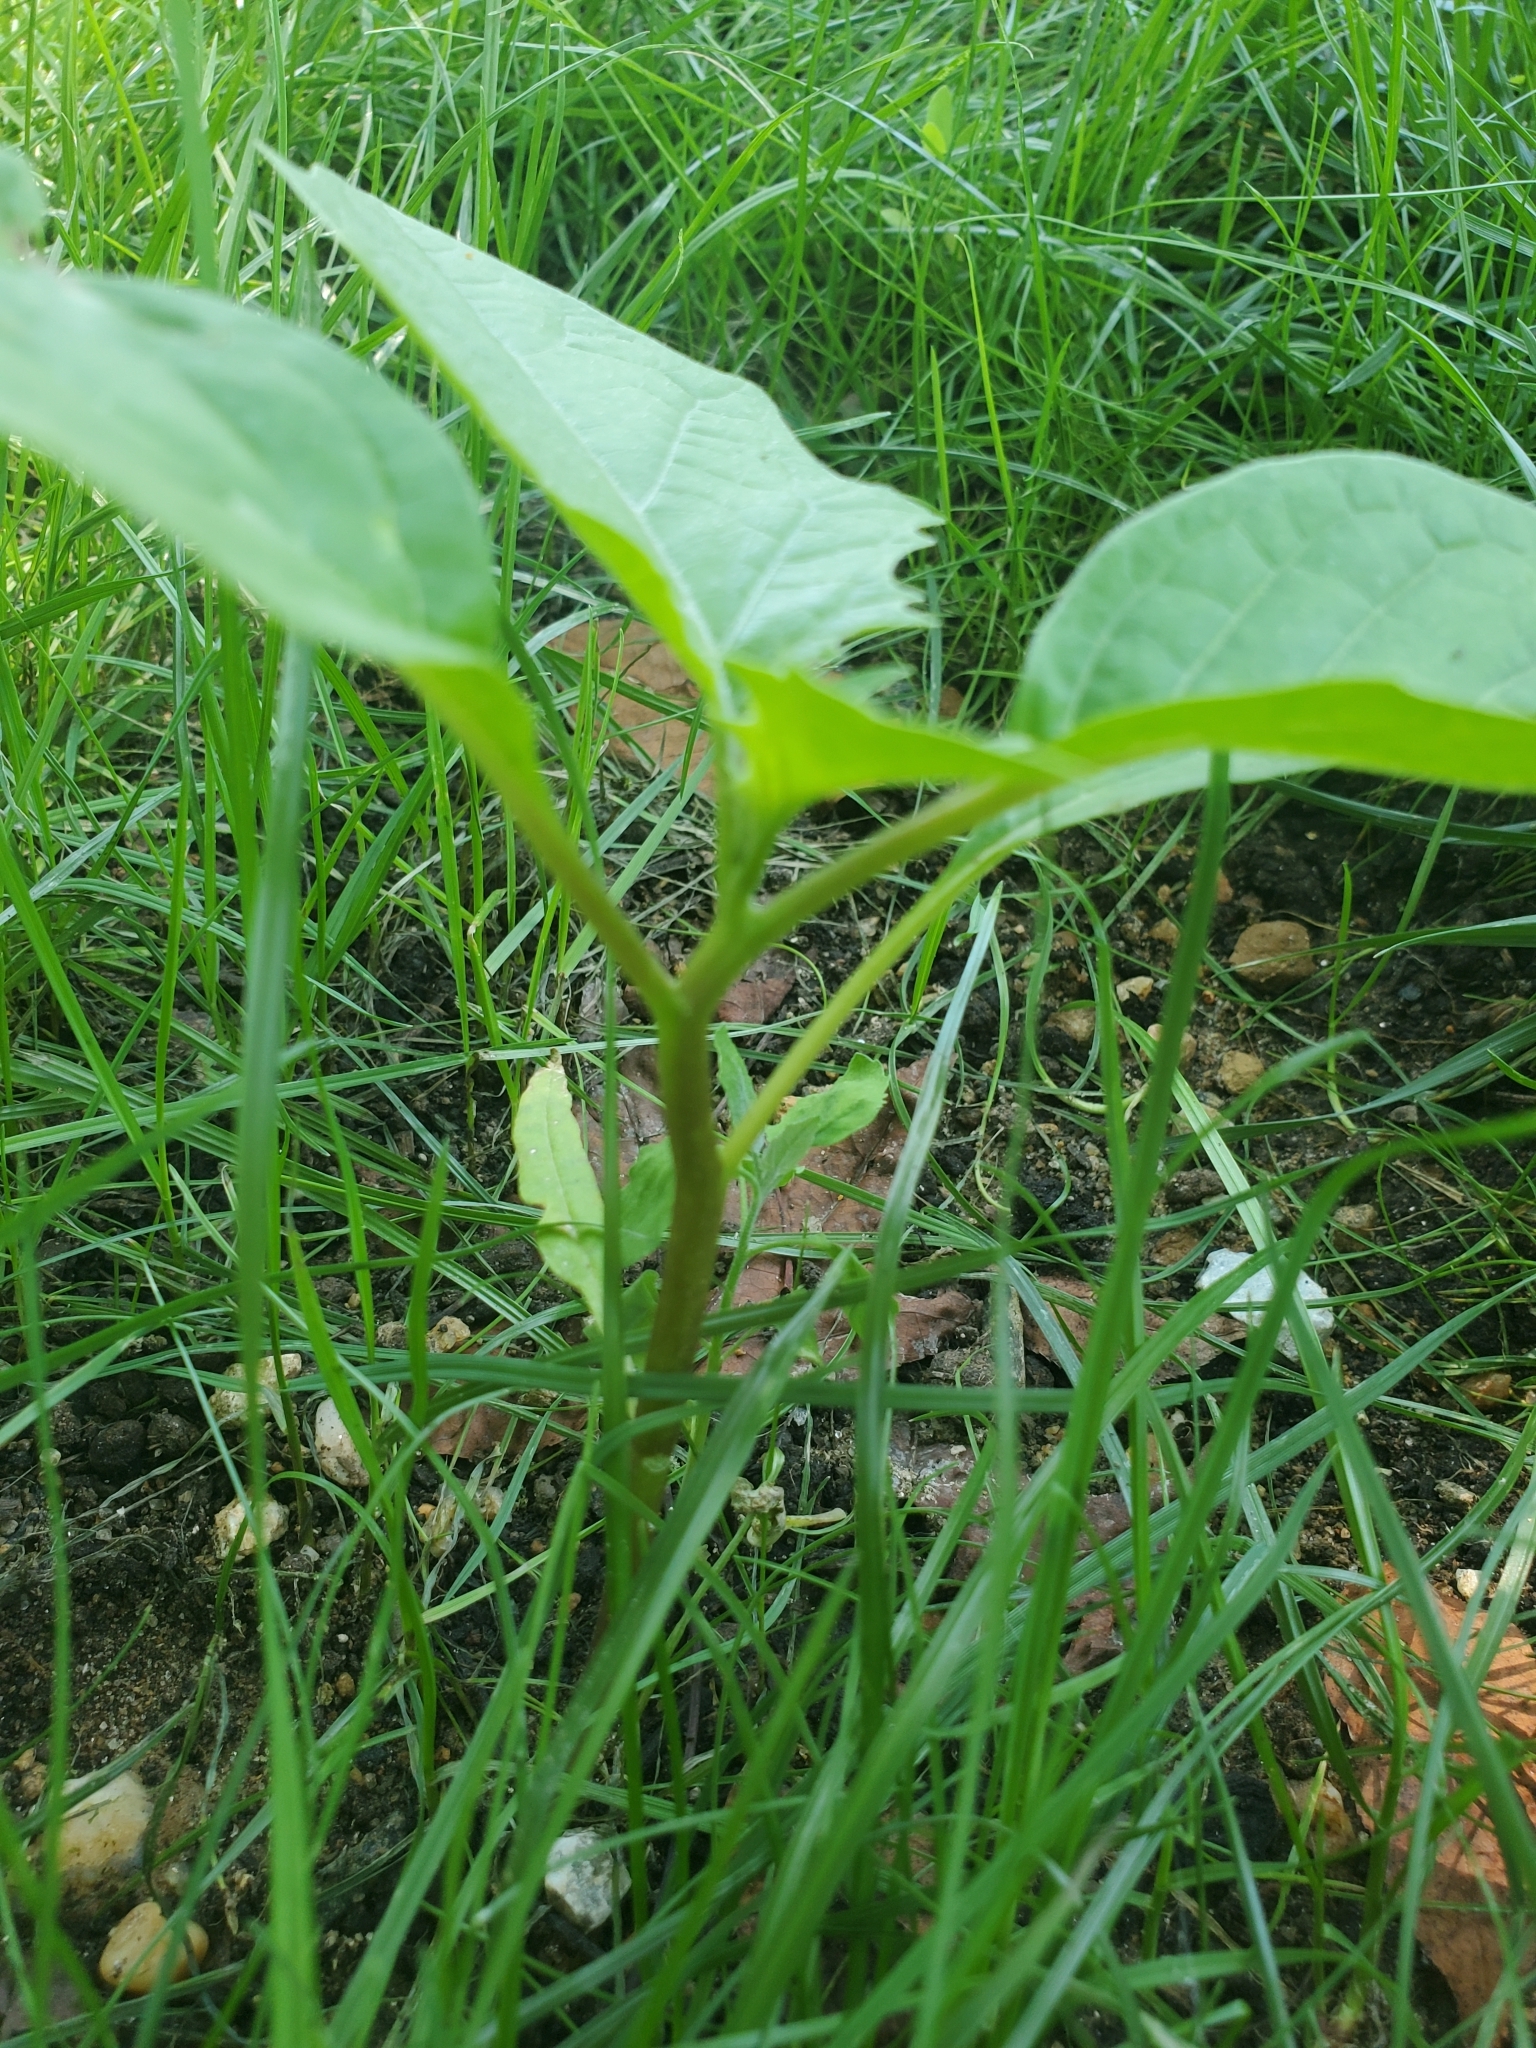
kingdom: Plantae
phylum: Tracheophyta
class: Magnoliopsida
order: Solanales
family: Solanaceae
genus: Datura
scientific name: Datura stramonium
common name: Thorn-apple
